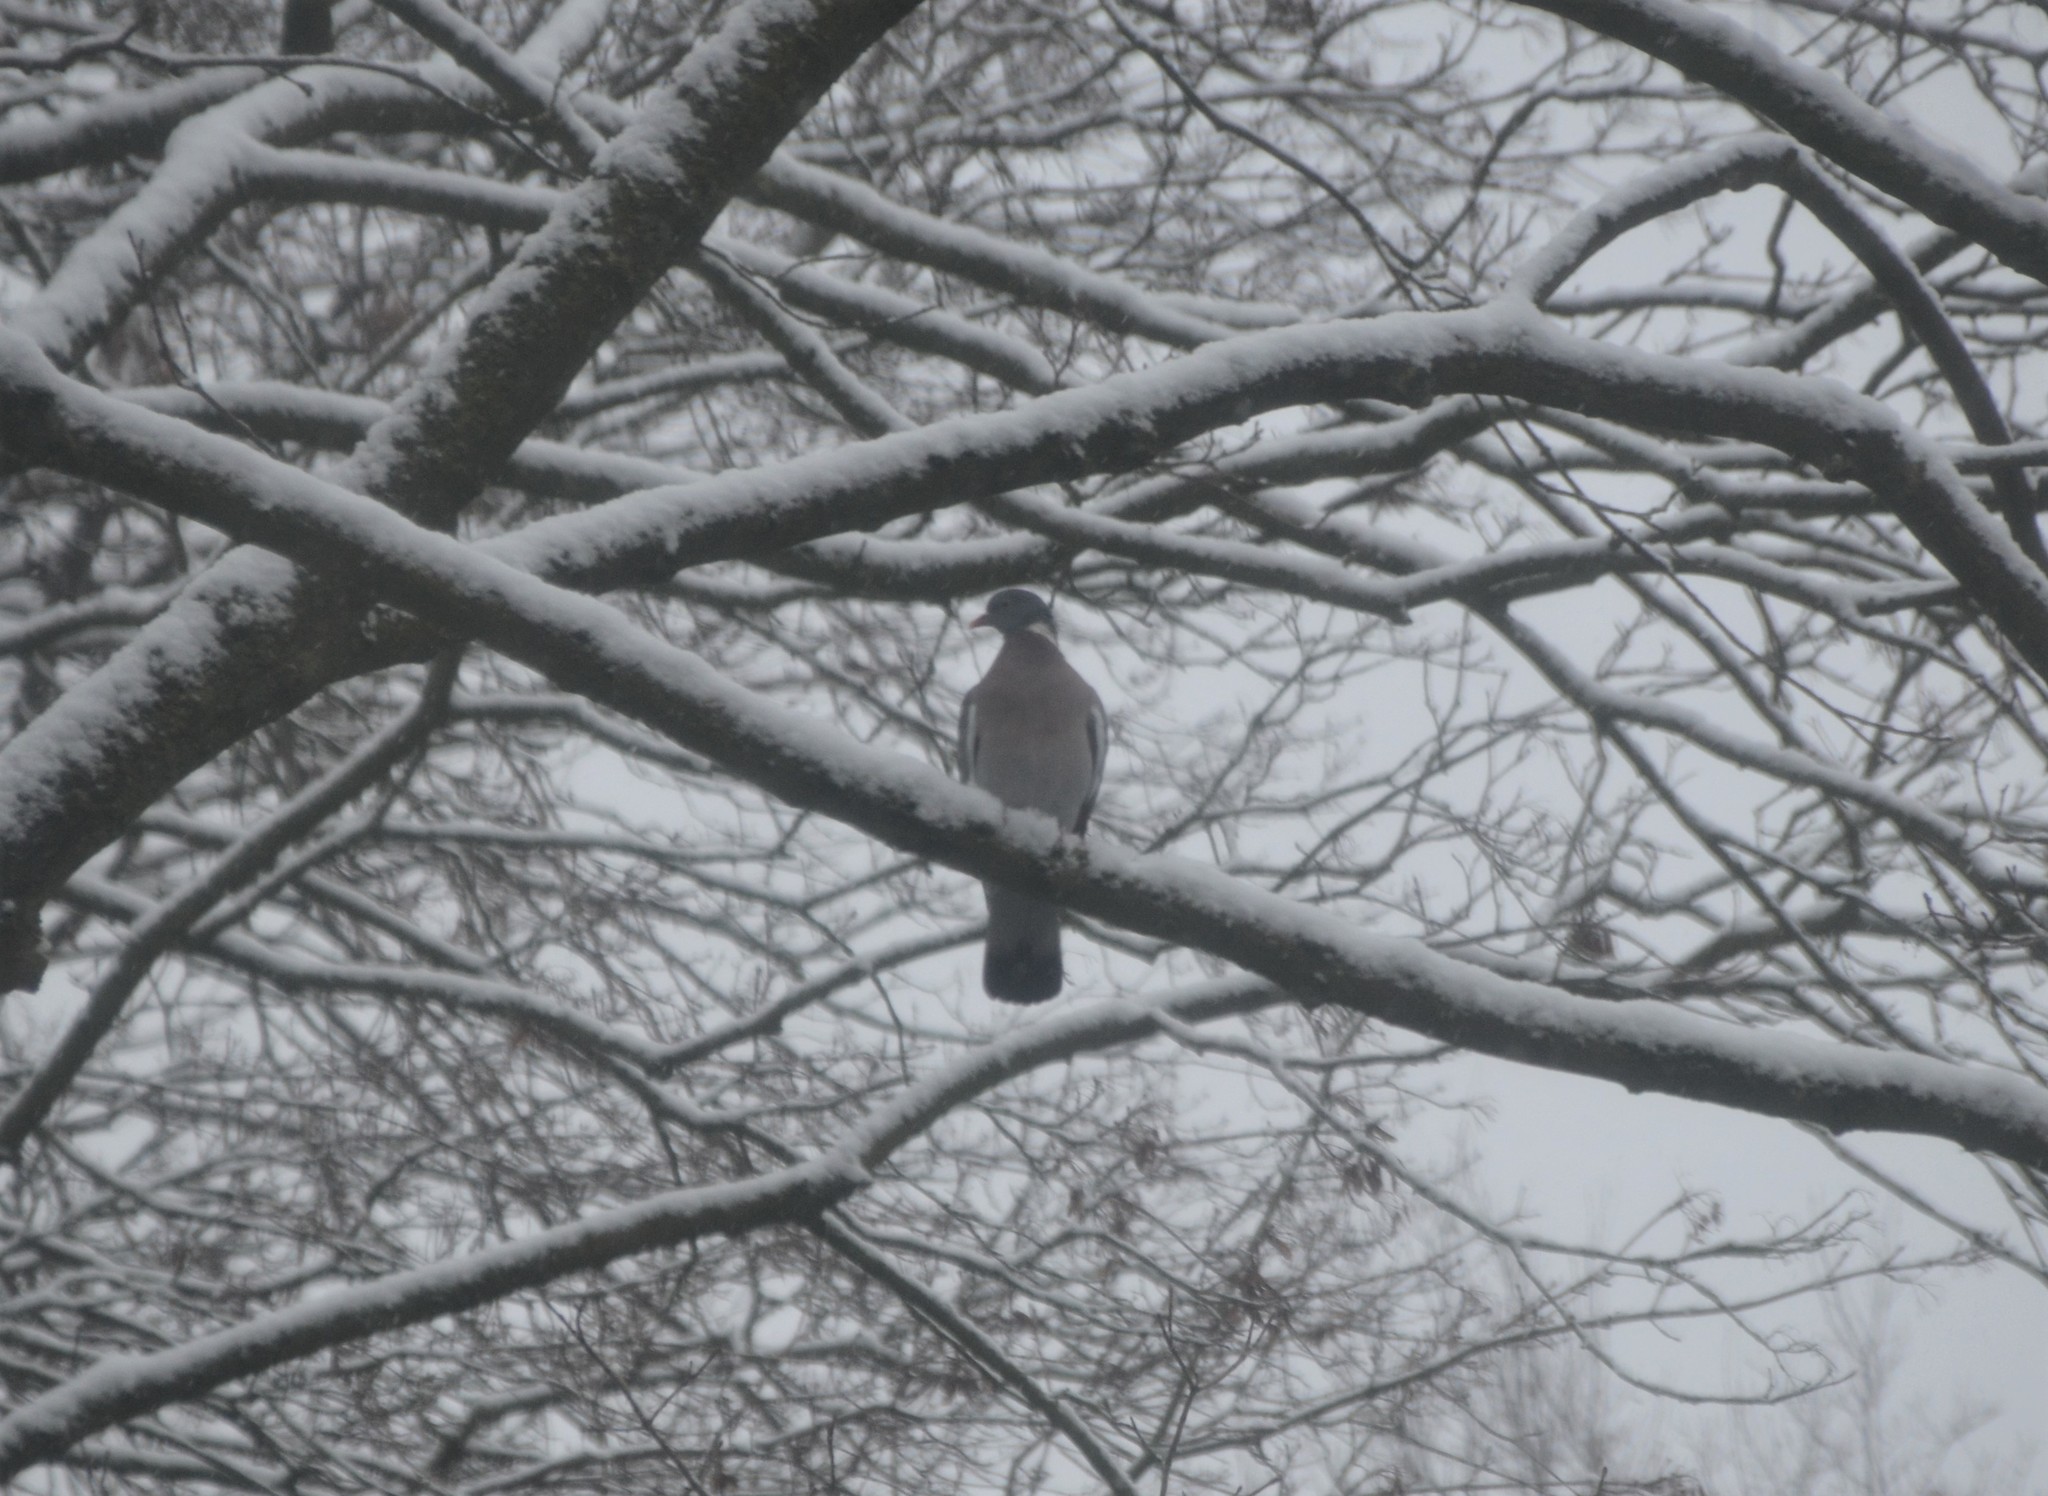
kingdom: Animalia
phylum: Chordata
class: Aves
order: Columbiformes
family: Columbidae
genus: Columba
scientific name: Columba palumbus
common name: Common wood pigeon
